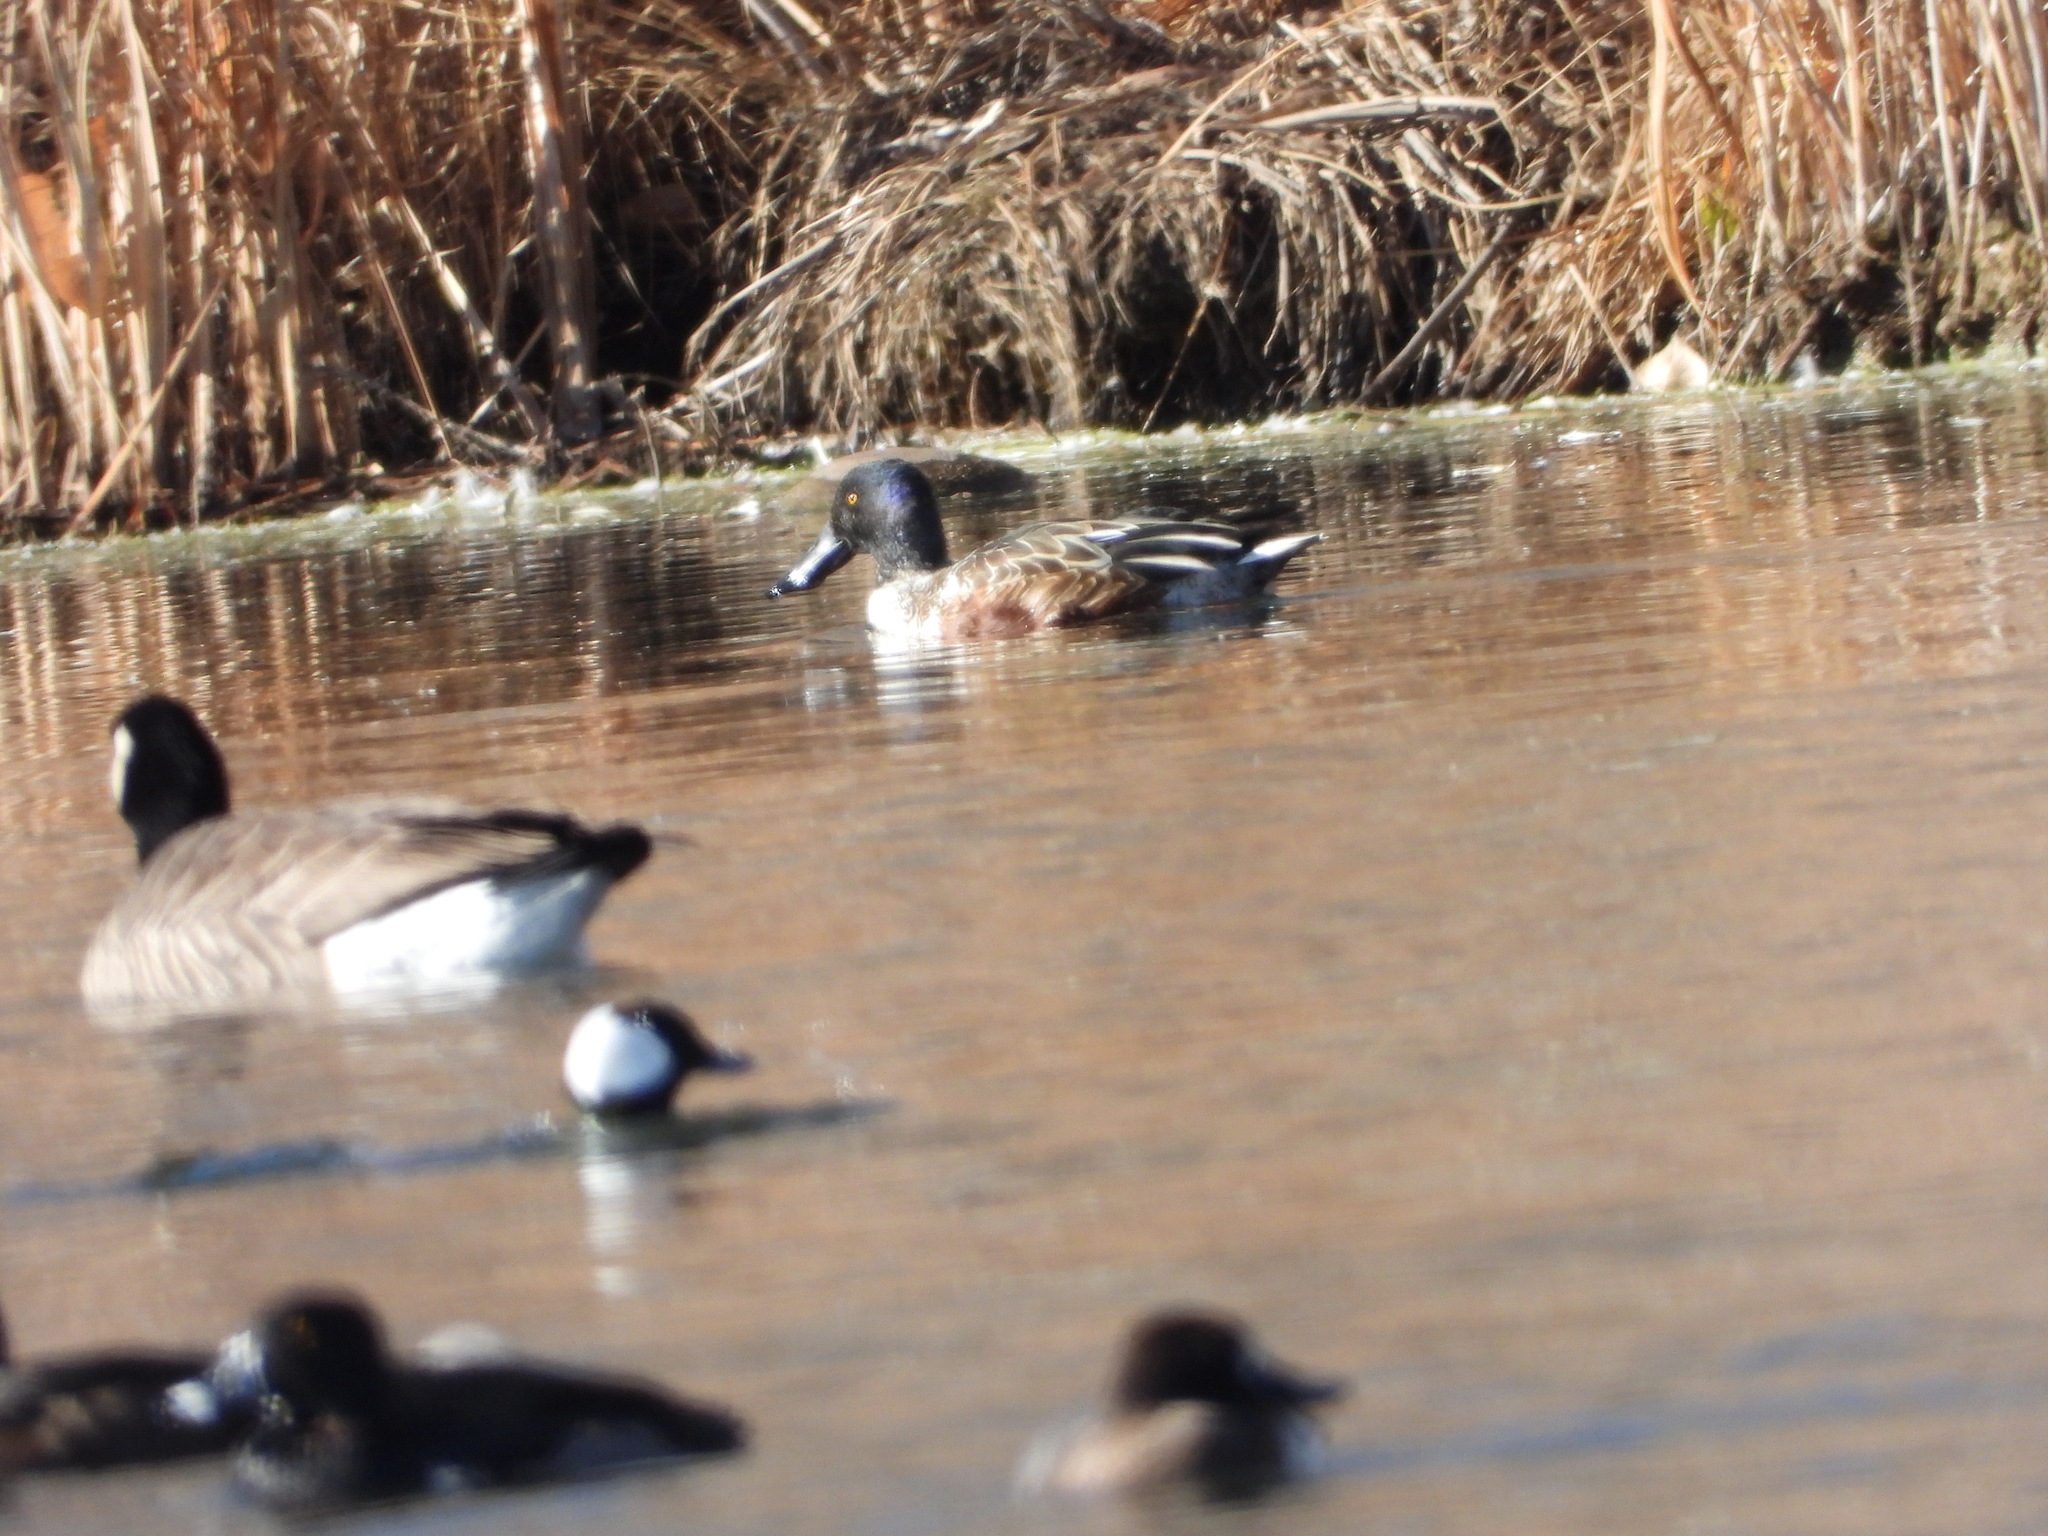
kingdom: Animalia
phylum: Chordata
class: Aves
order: Anseriformes
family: Anatidae
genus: Spatula
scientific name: Spatula clypeata
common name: Northern shoveler
